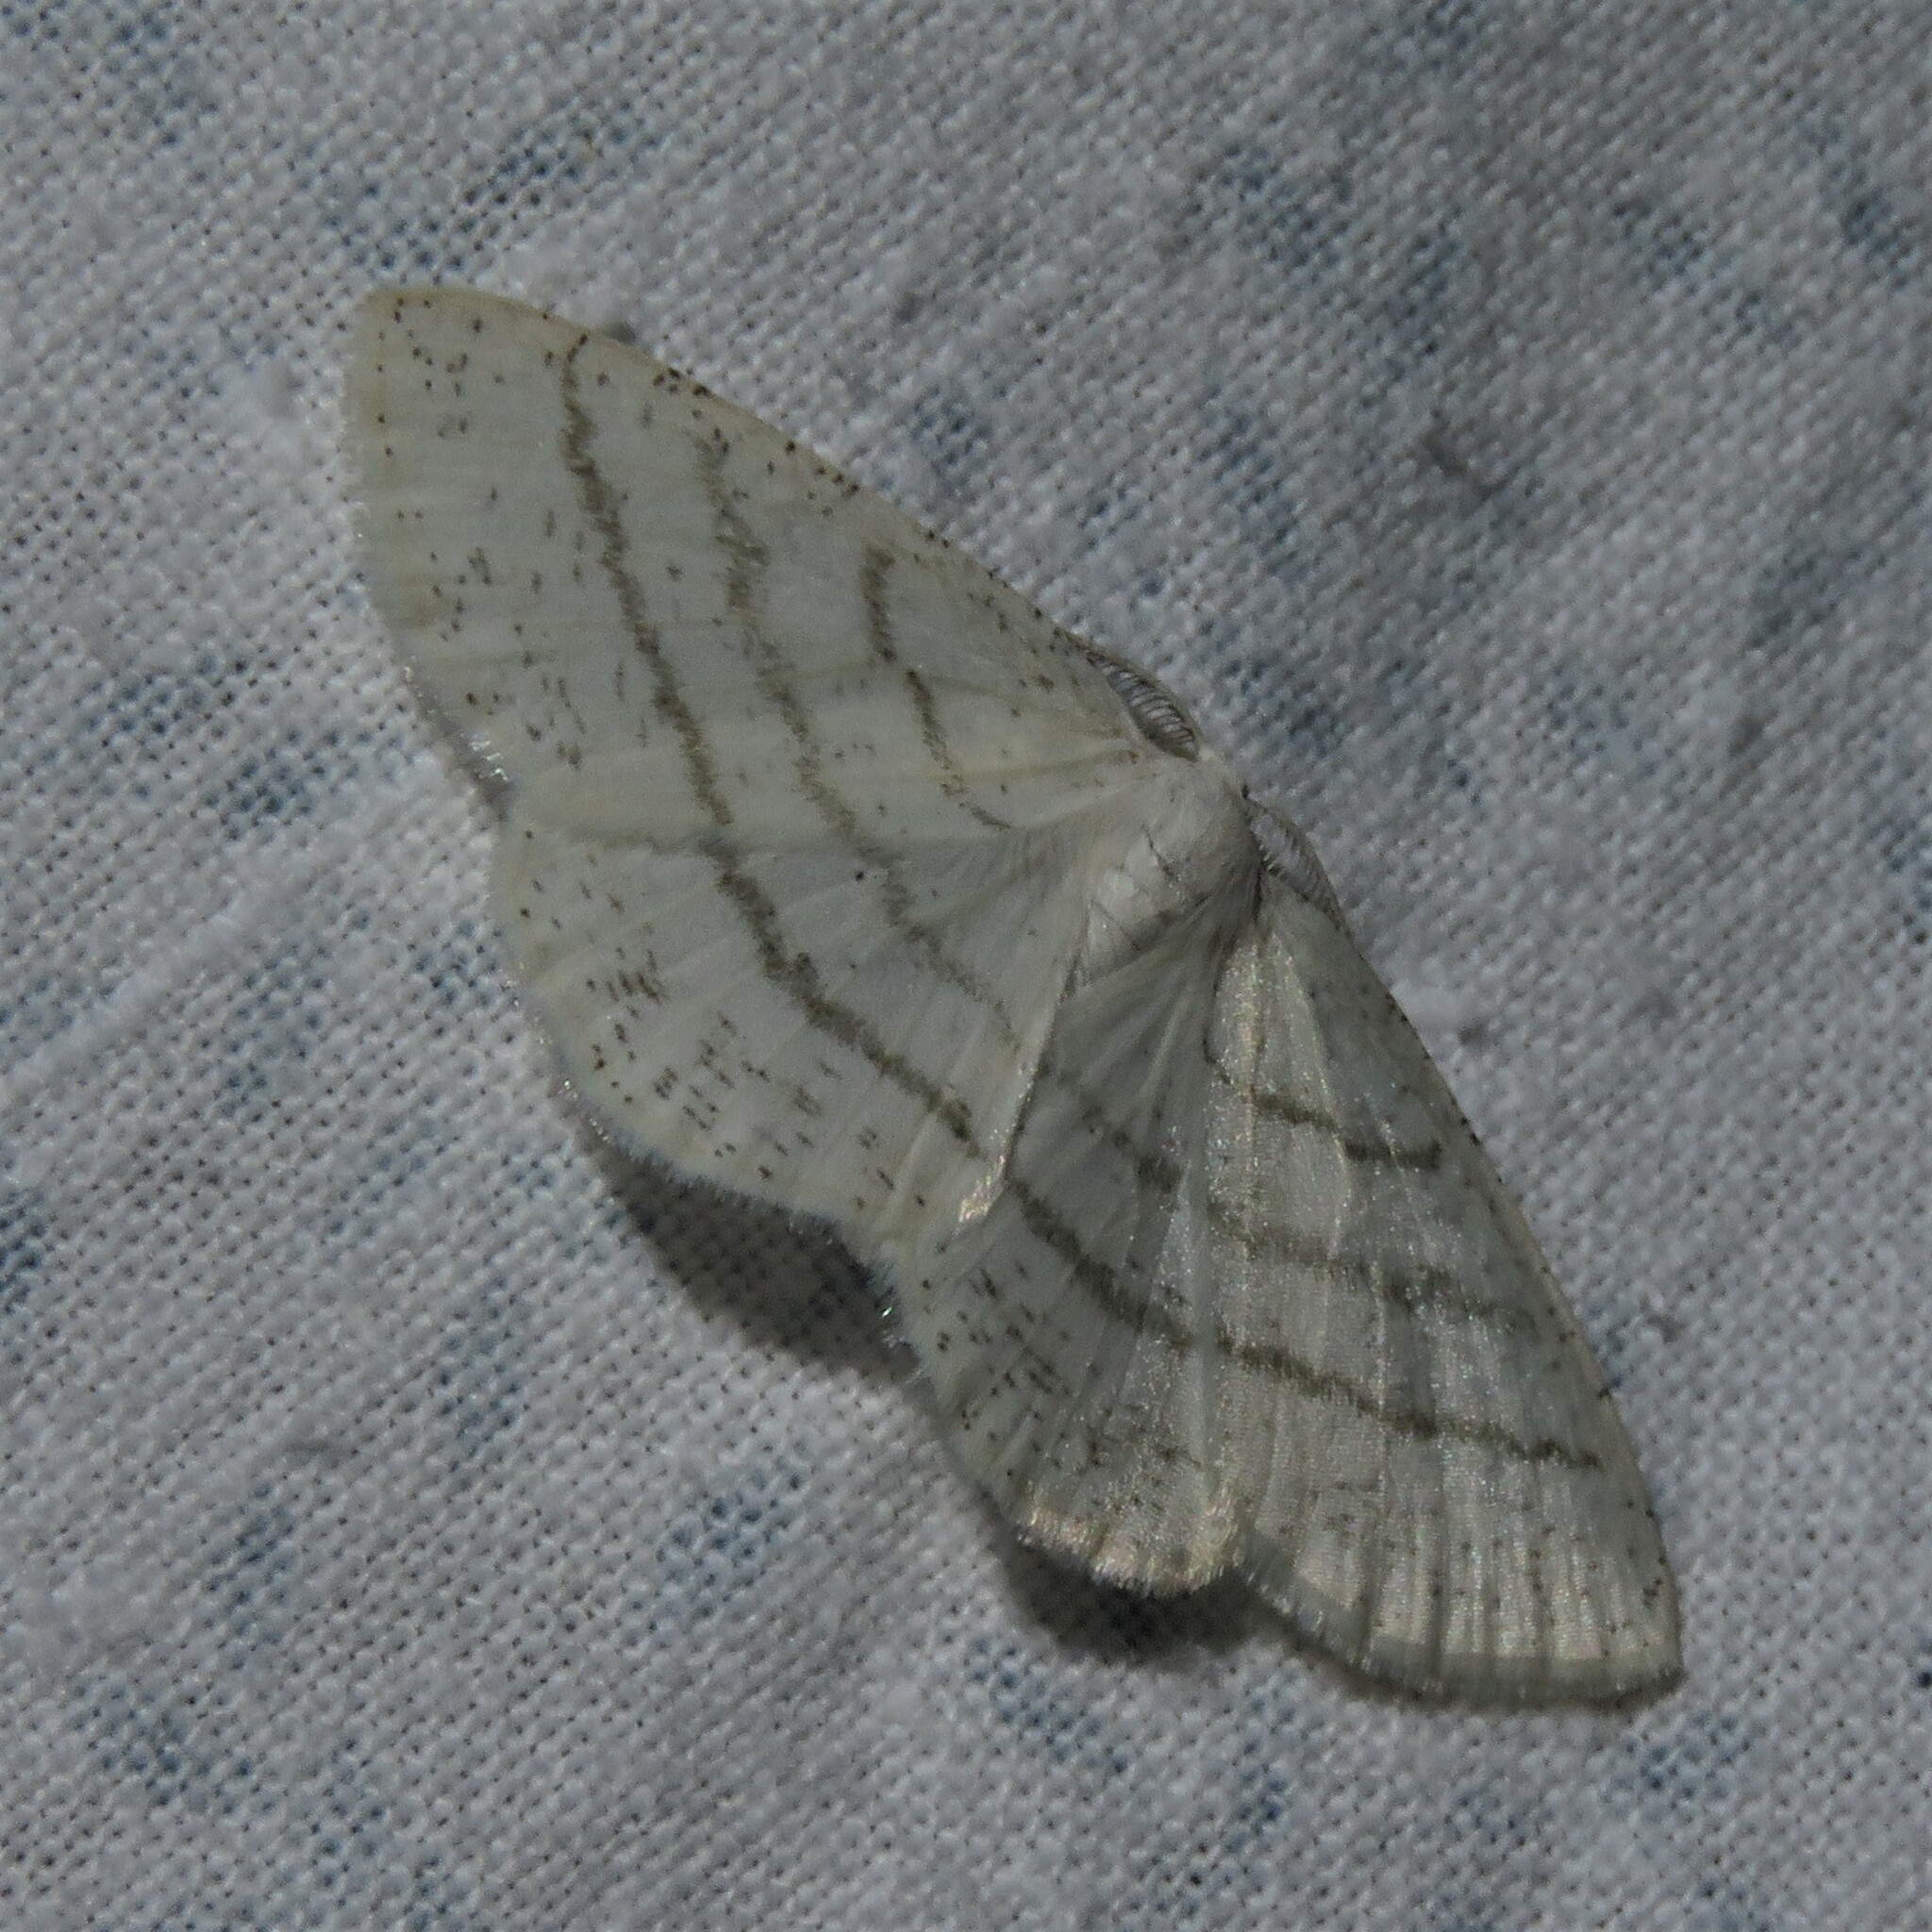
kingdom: Animalia
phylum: Arthropoda
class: Insecta
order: Lepidoptera
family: Geometridae
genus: Cabera
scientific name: Cabera pusaria
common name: Common white wave
